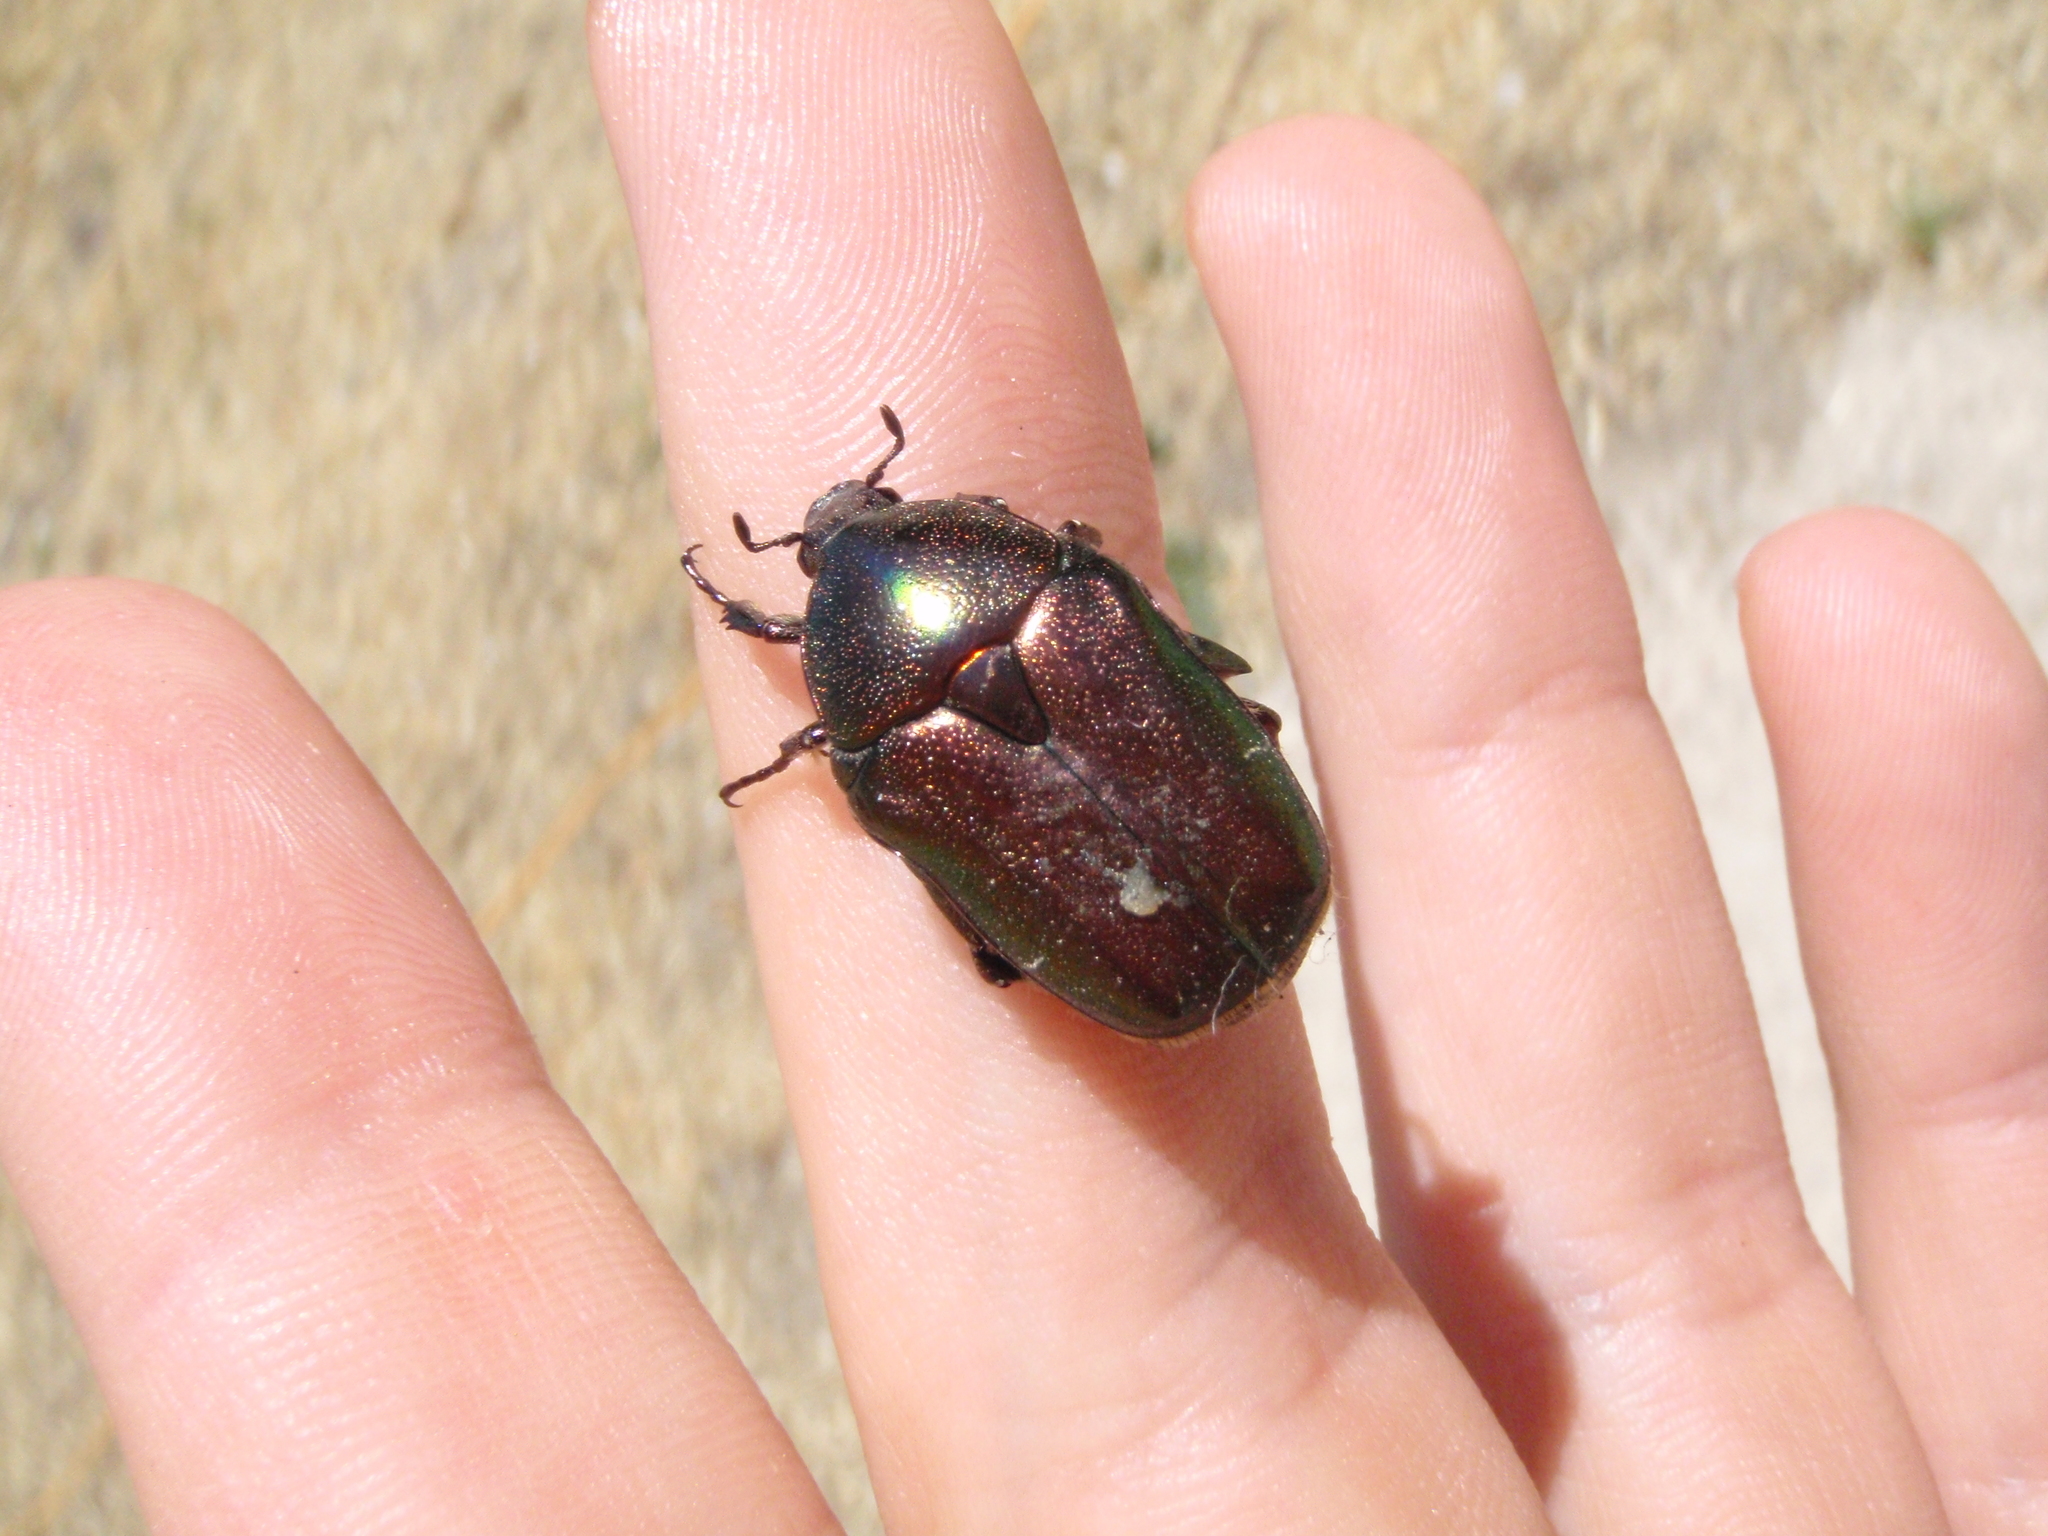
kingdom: Animalia
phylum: Arthropoda
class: Insecta
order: Coleoptera
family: Scarabaeidae
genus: Protaetia
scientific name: Protaetia cuprea
